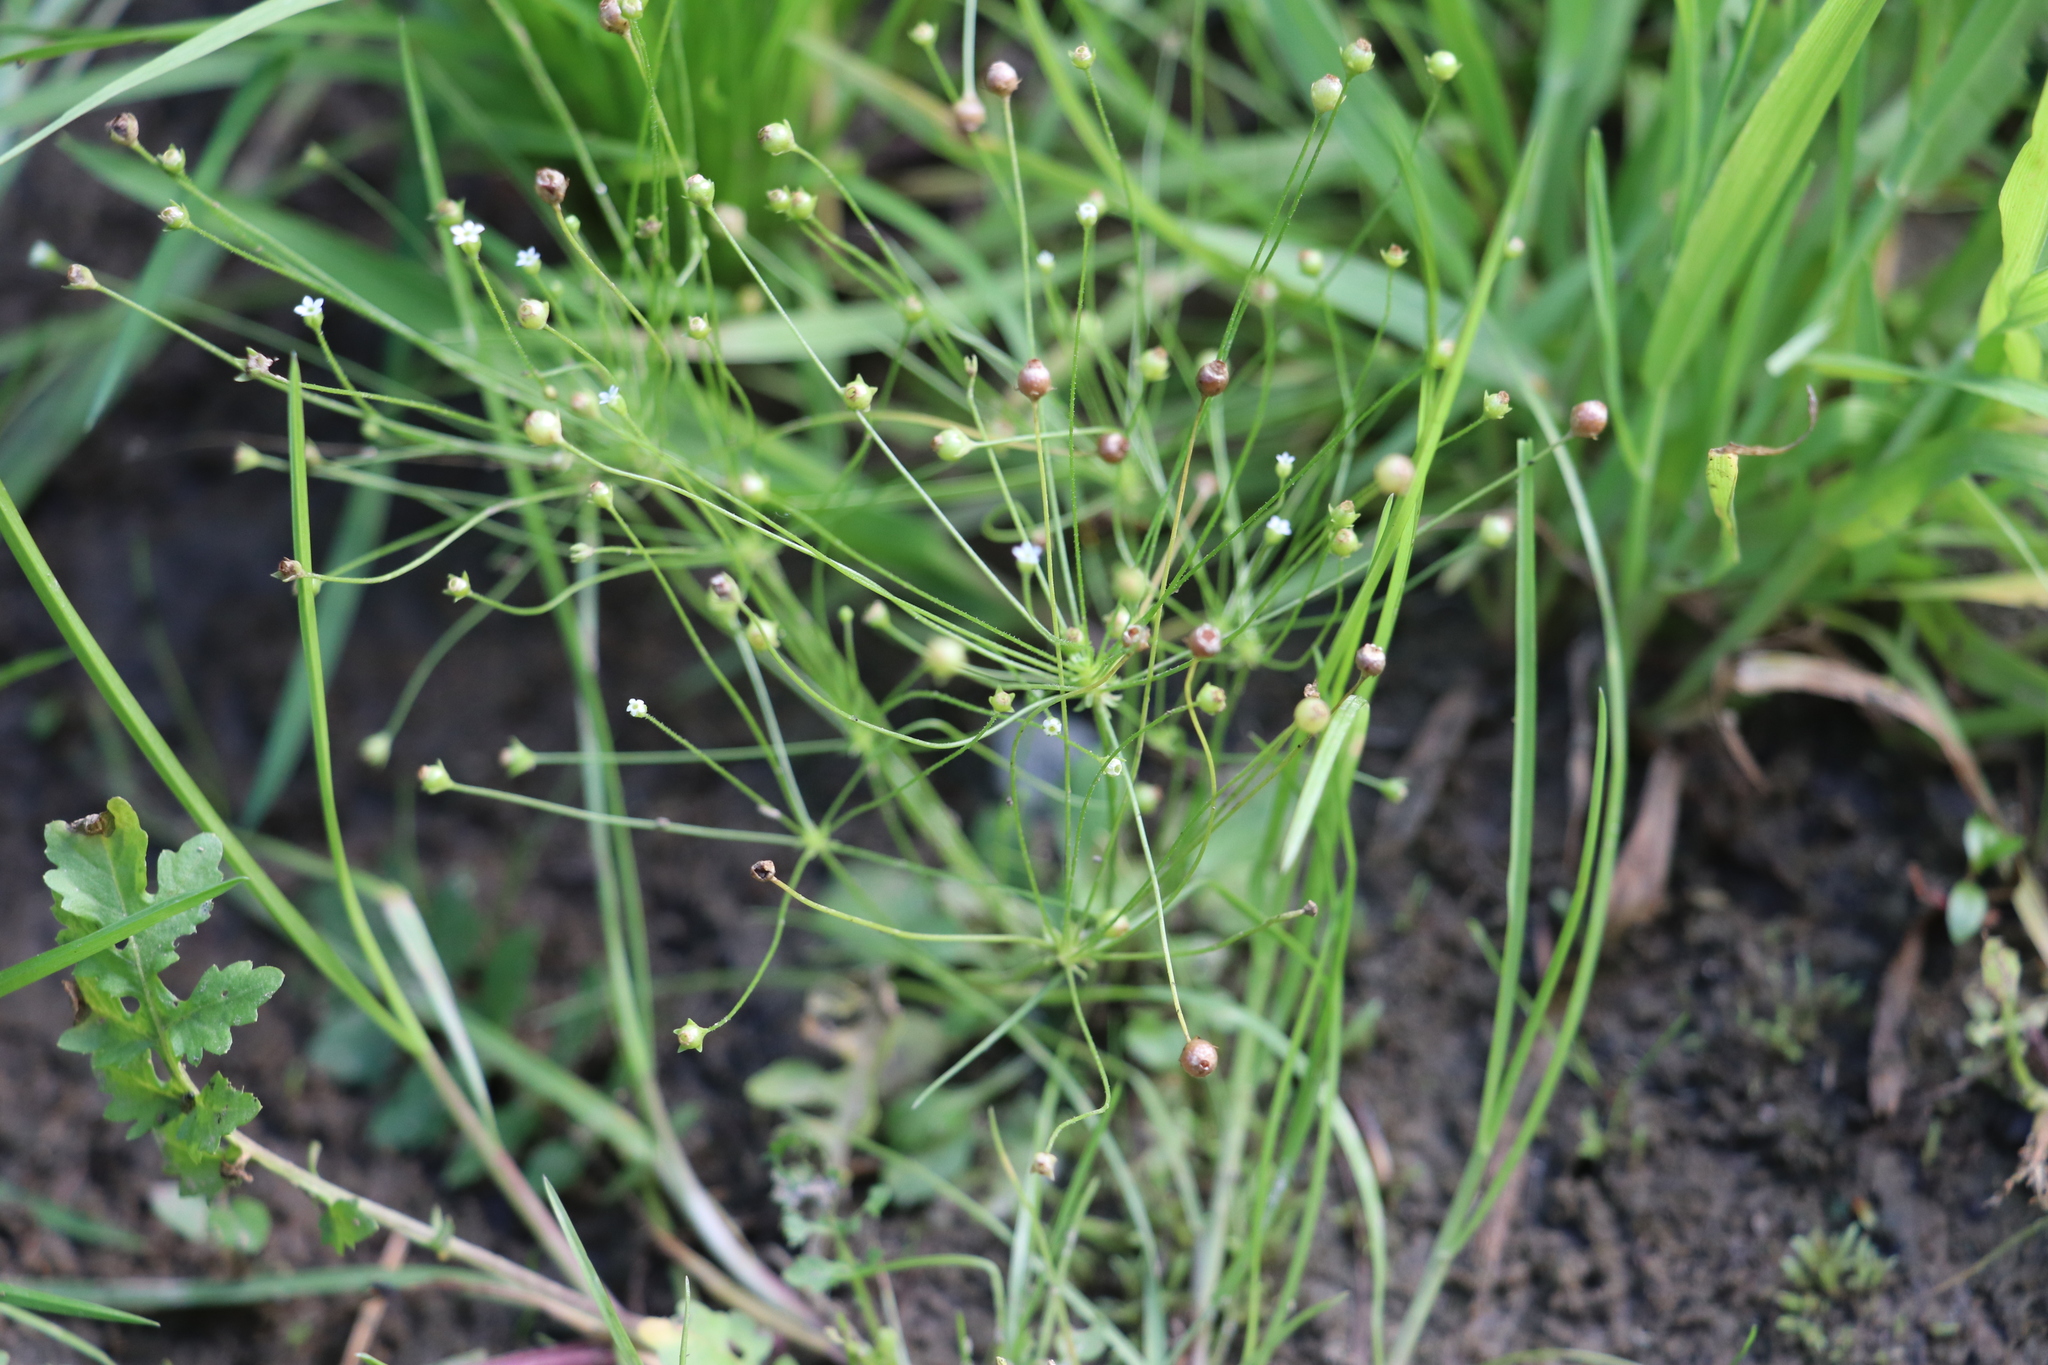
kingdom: Plantae
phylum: Tracheophyta
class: Magnoliopsida
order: Ericales
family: Primulaceae
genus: Androsace
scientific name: Androsace filiformis
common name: Filiform rock jasmine
